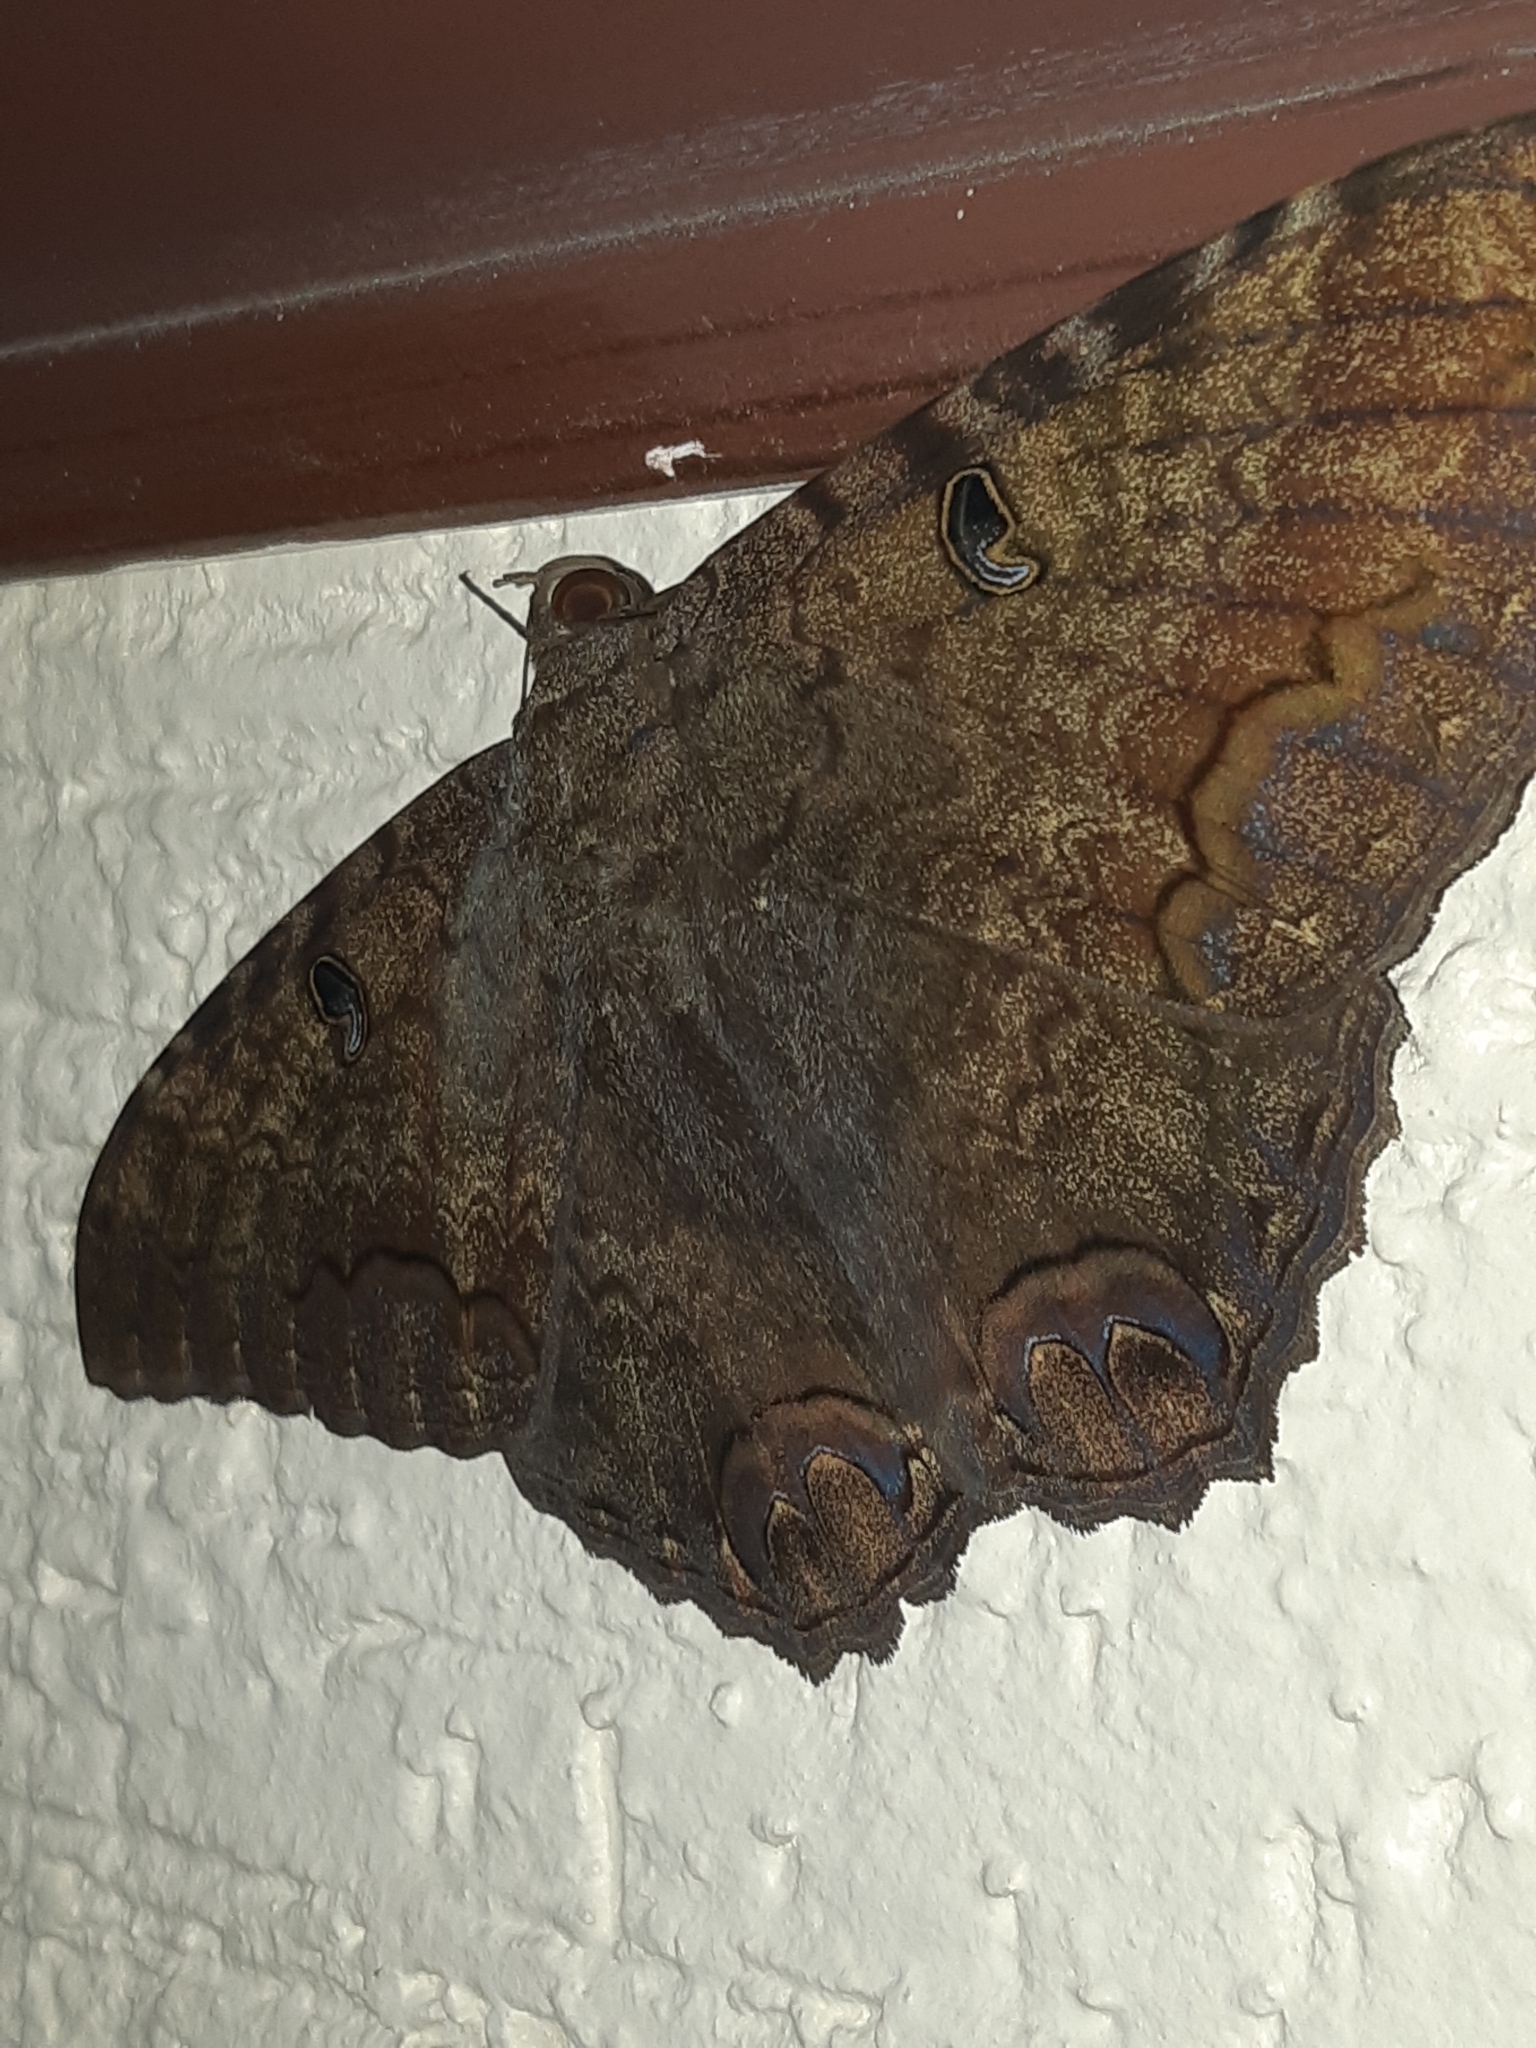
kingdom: Animalia
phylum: Arthropoda
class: Insecta
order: Lepidoptera
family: Erebidae
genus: Ascalapha
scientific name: Ascalapha odorata
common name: Black witch
